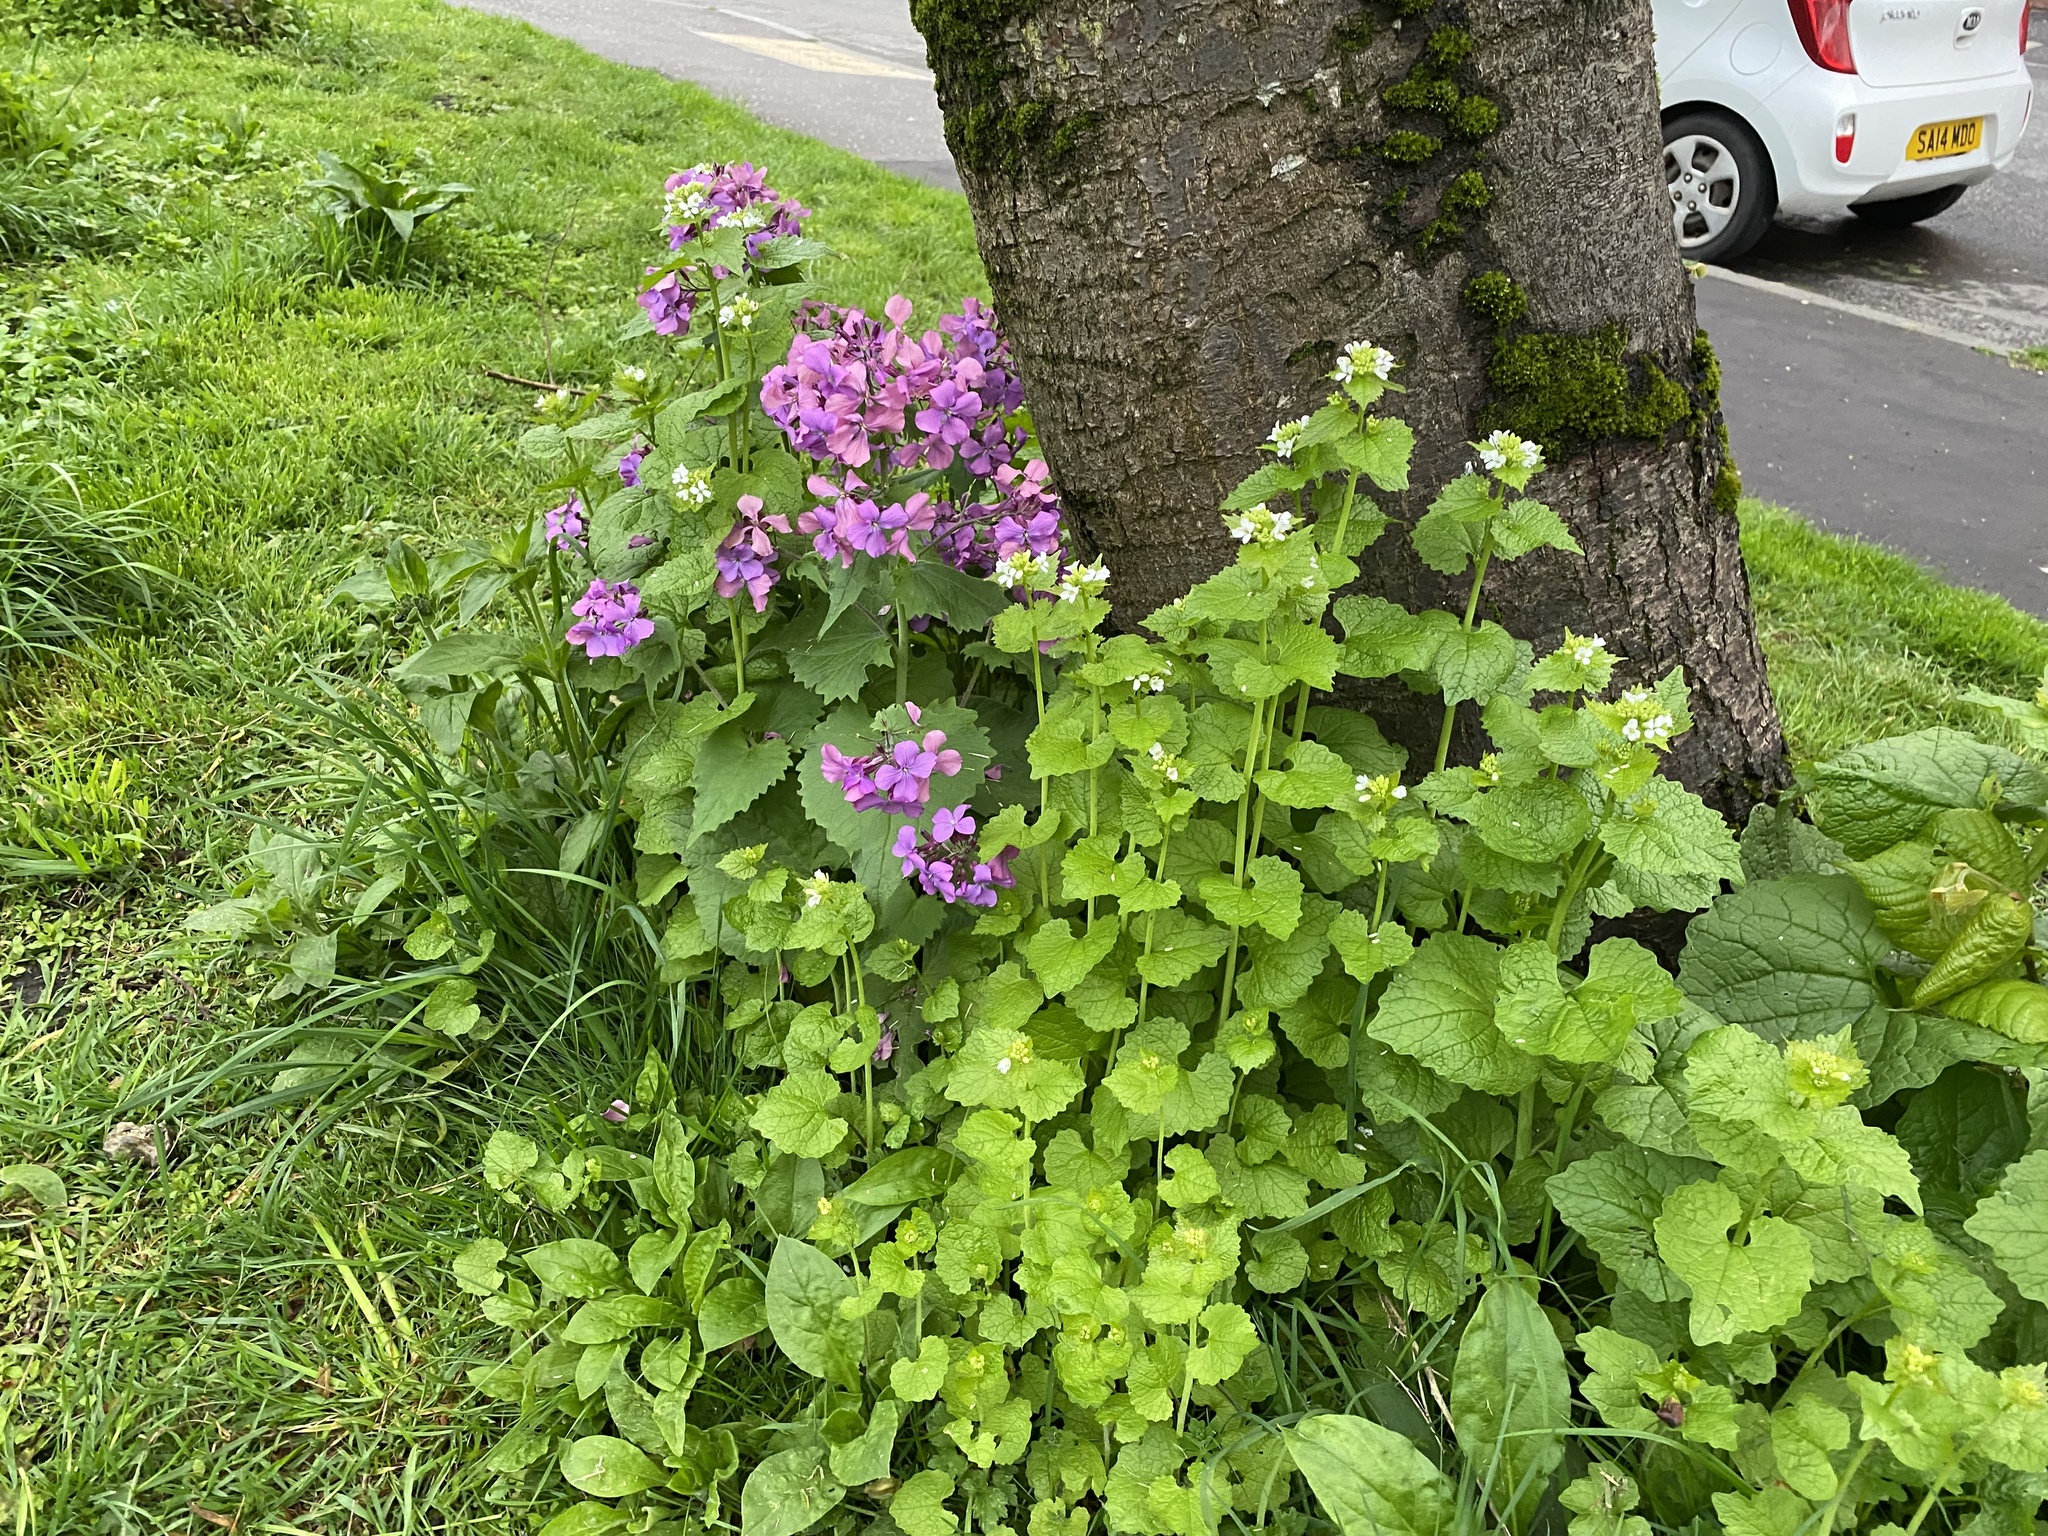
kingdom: Plantae
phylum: Tracheophyta
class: Magnoliopsida
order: Brassicales
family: Brassicaceae
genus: Alliaria
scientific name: Alliaria petiolata
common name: Garlic mustard
